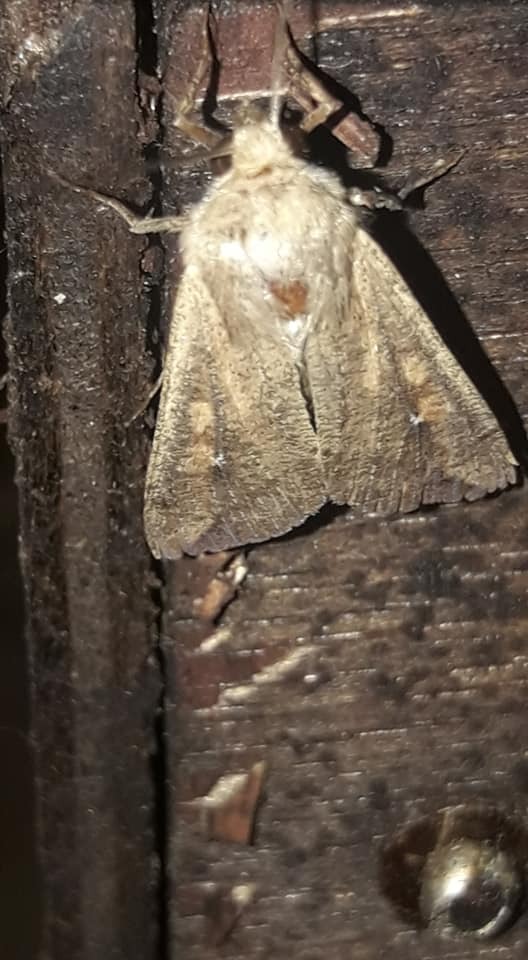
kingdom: Animalia
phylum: Arthropoda
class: Insecta
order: Lepidoptera
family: Noctuidae
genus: Mythimna
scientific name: Mythimna unipuncta
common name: White-speck
